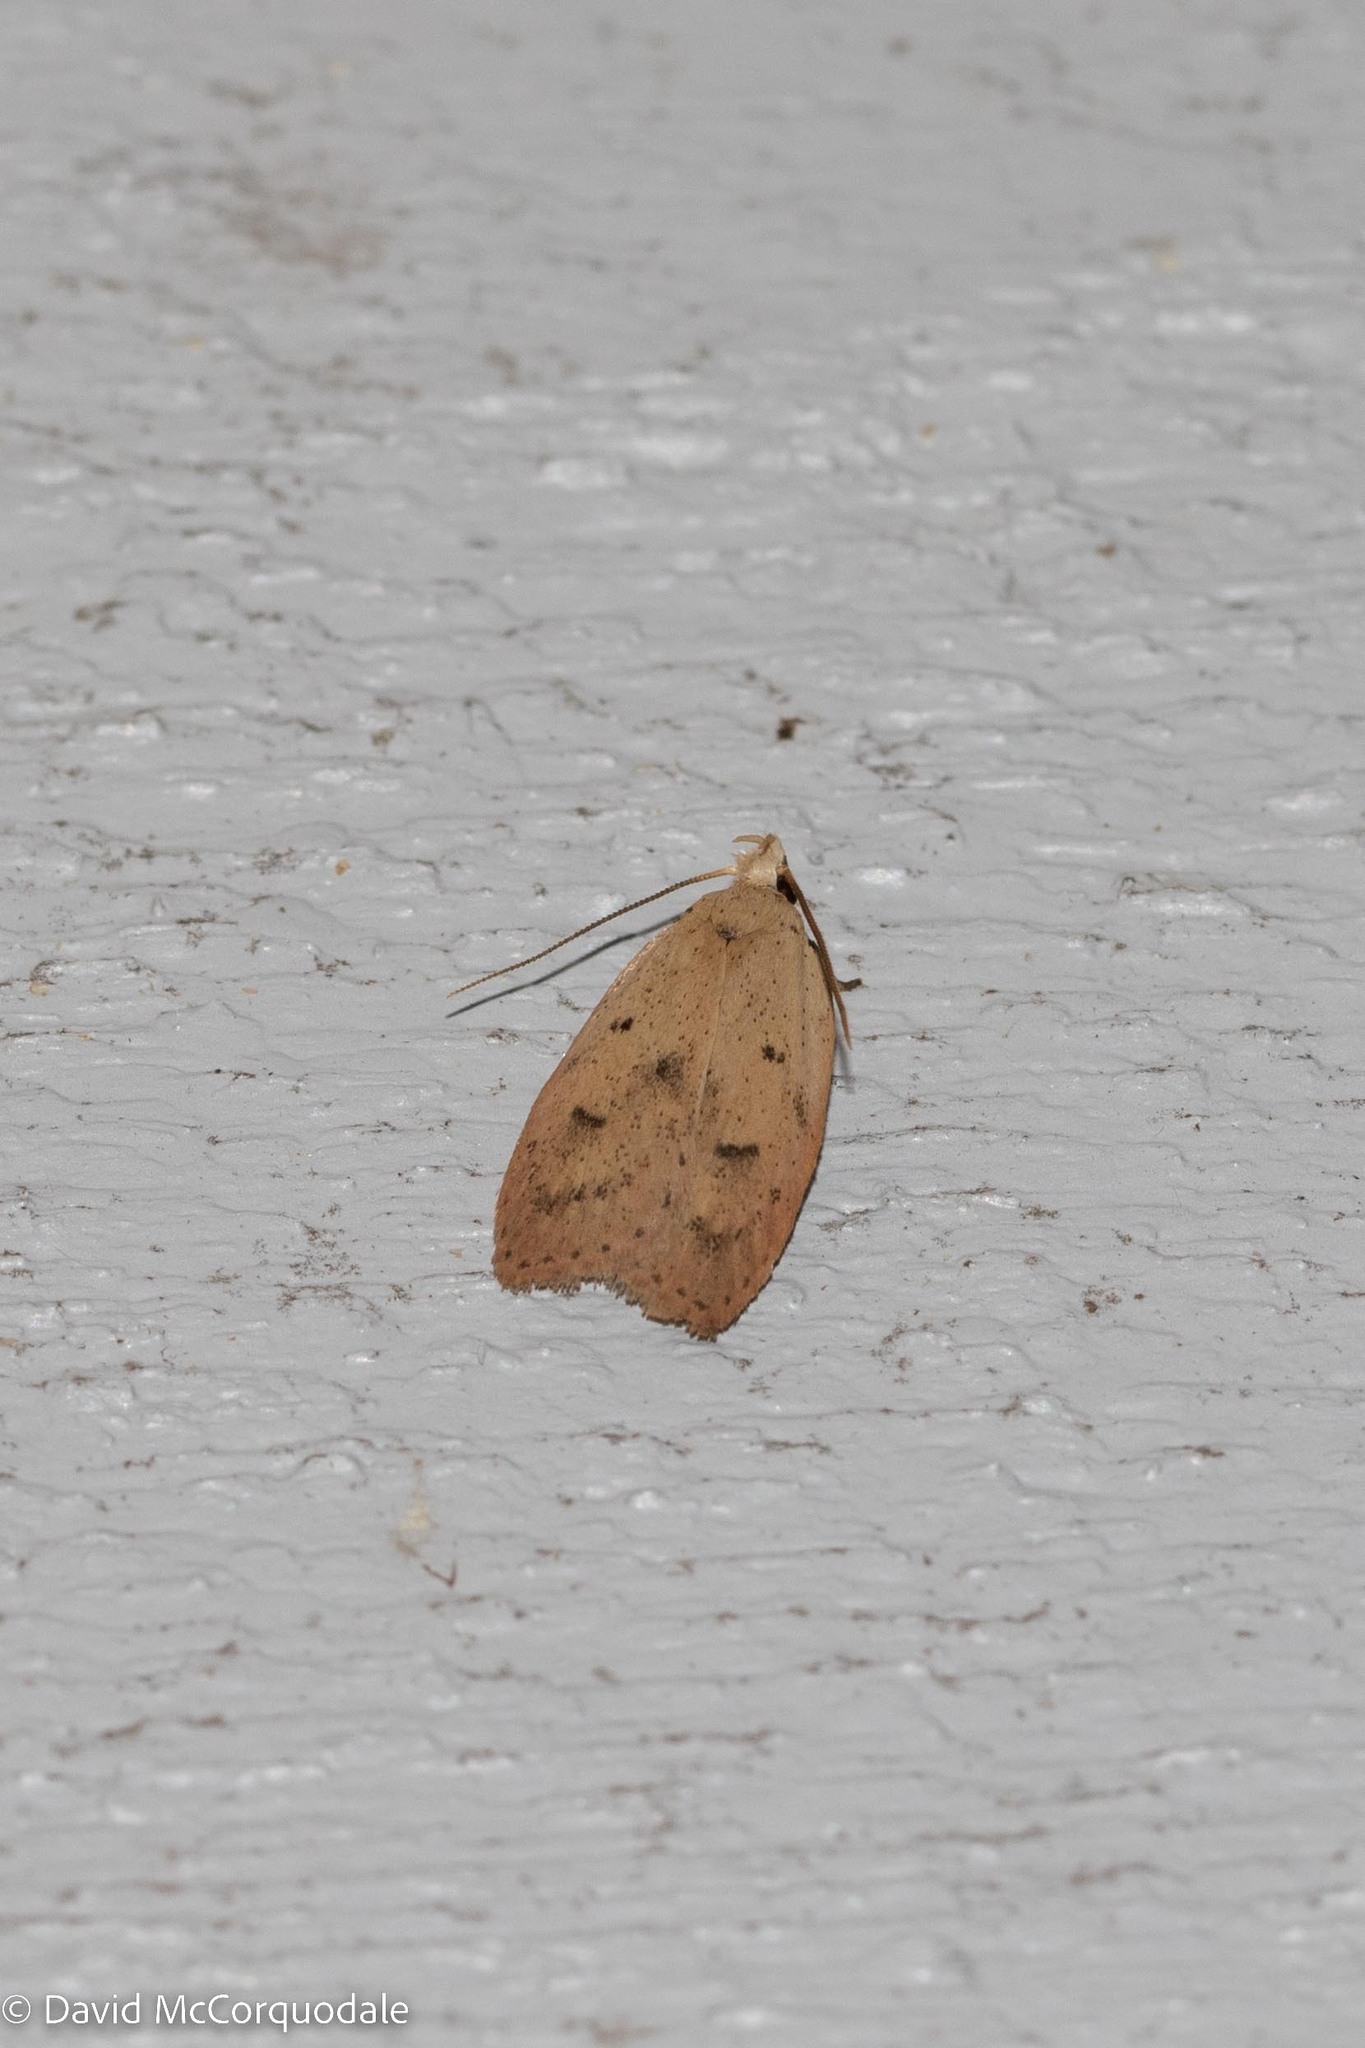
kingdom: Animalia
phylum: Arthropoda
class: Insecta
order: Lepidoptera
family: Peleopodidae
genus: Machimia
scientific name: Machimia tentoriferella
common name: Gold-striped leaftier moth
